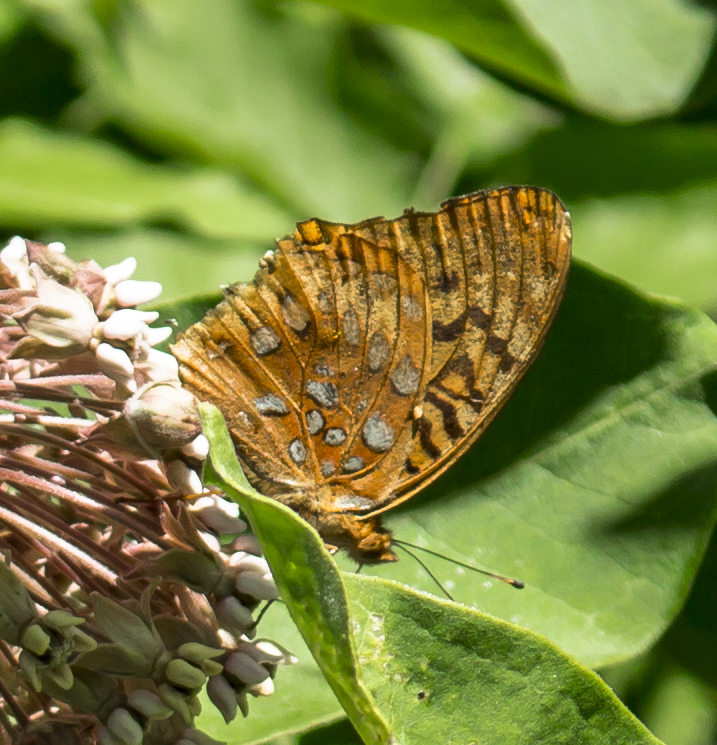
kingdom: Animalia
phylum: Arthropoda
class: Insecta
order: Lepidoptera
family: Nymphalidae
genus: Speyeria
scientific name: Speyeria cybele
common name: Great spangled fritillary
